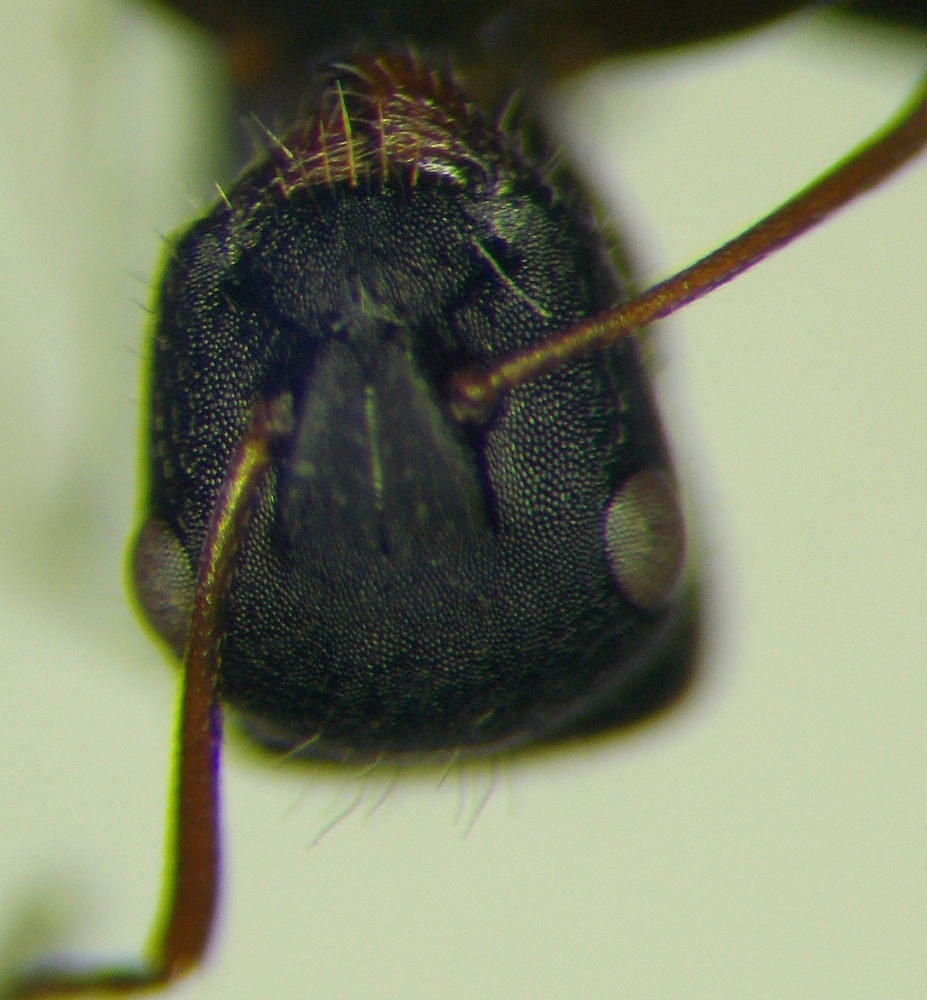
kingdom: Animalia
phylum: Arthropoda
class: Insecta
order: Hymenoptera
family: Formicidae
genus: Camponotus
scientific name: Camponotus libanicus
